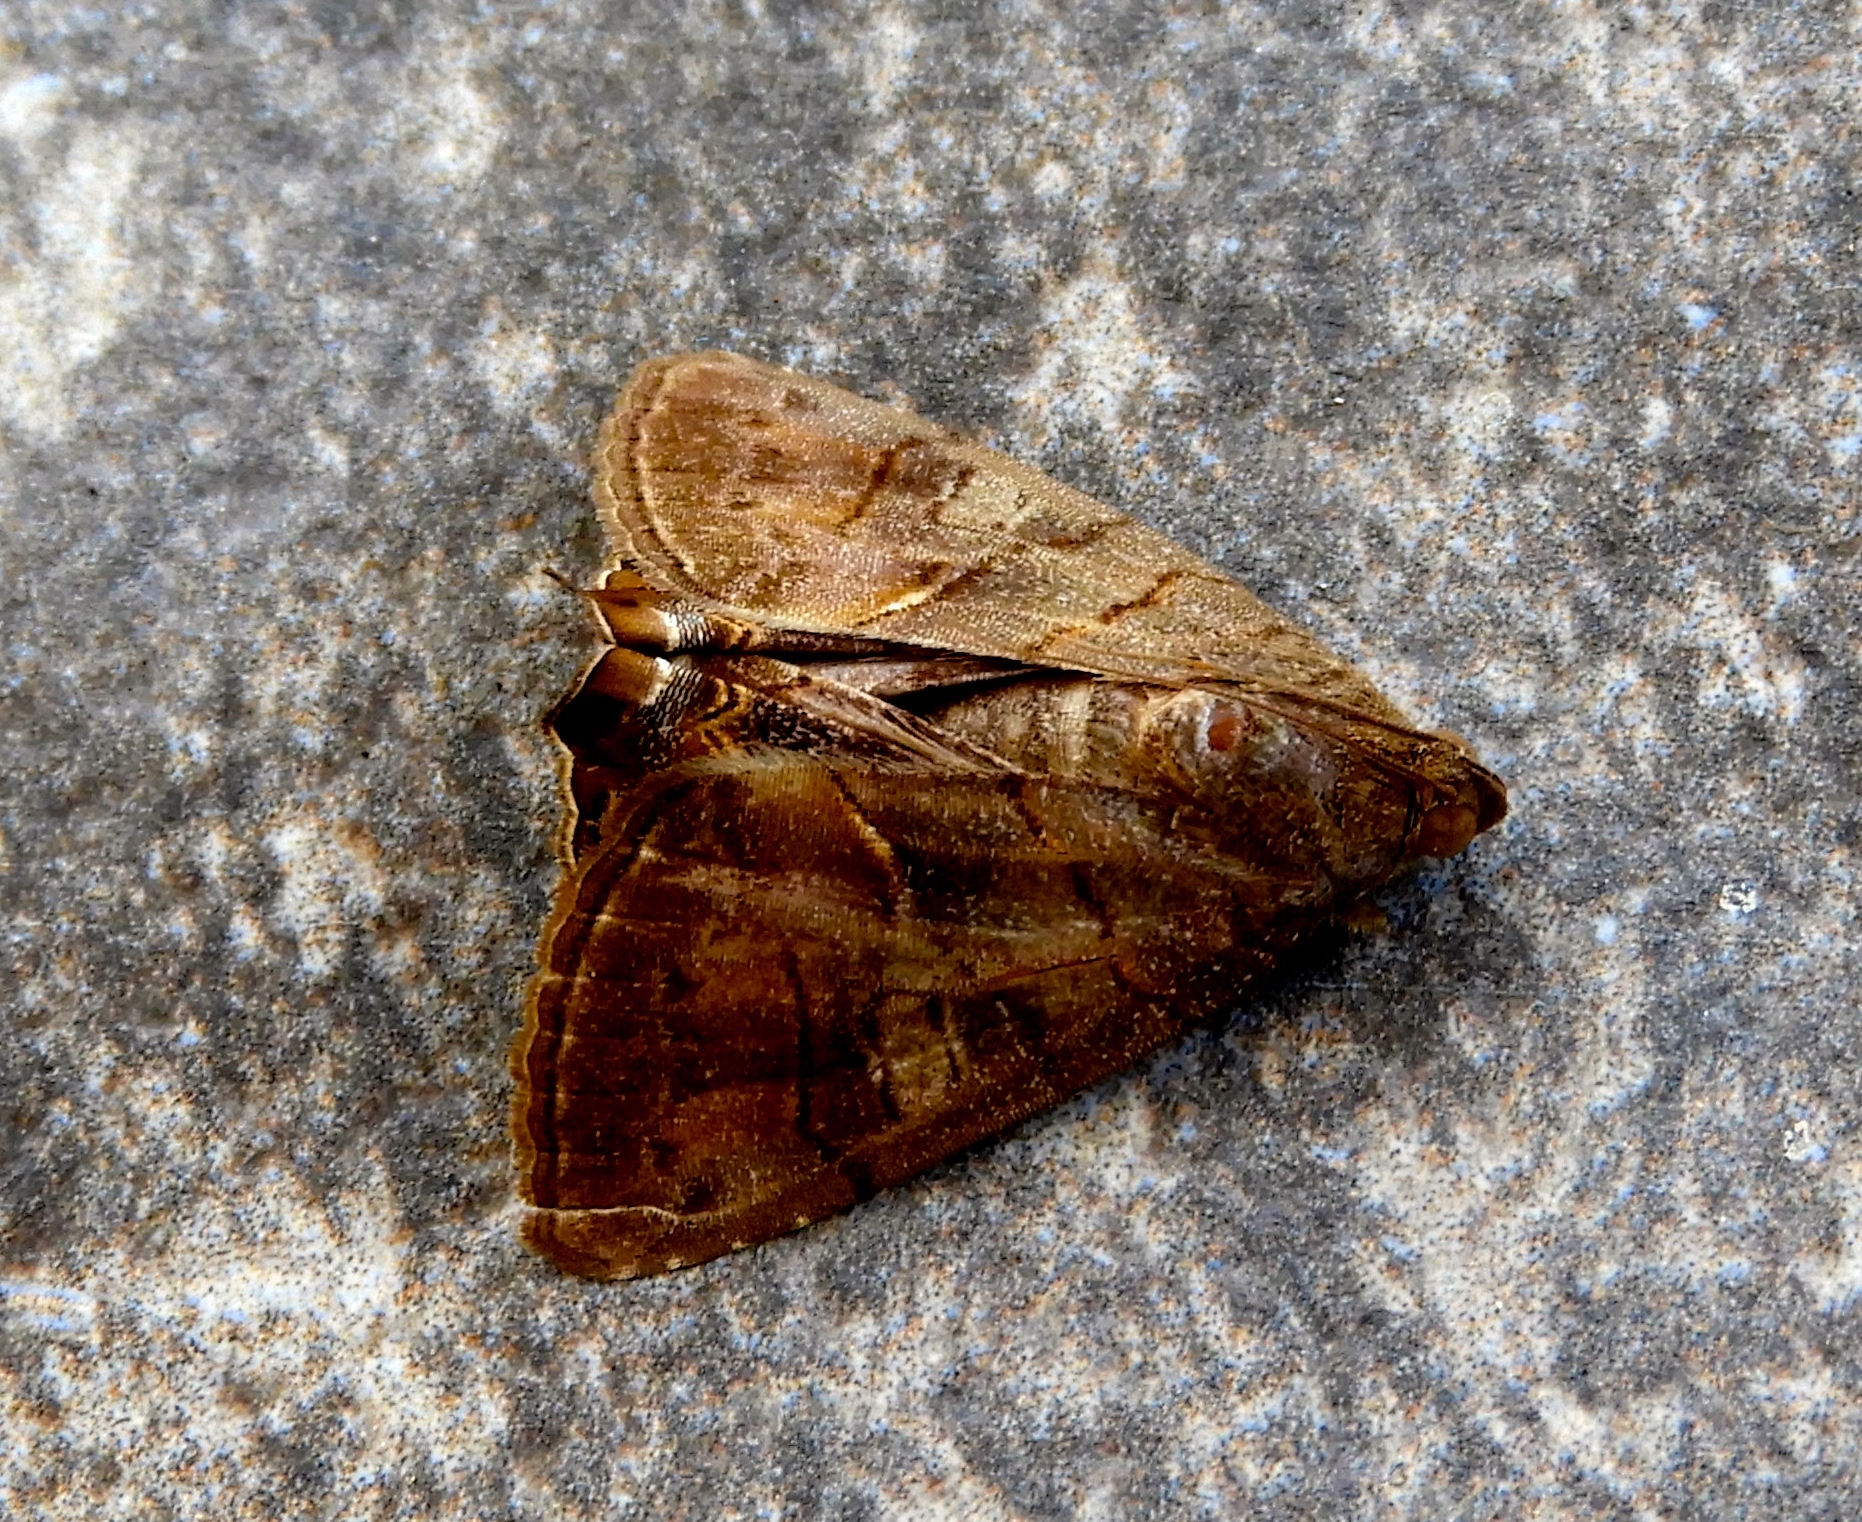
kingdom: Animalia
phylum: Arthropoda
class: Insecta
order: Lepidoptera
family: Erebidae
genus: Eulepidotis
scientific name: Eulepidotis
